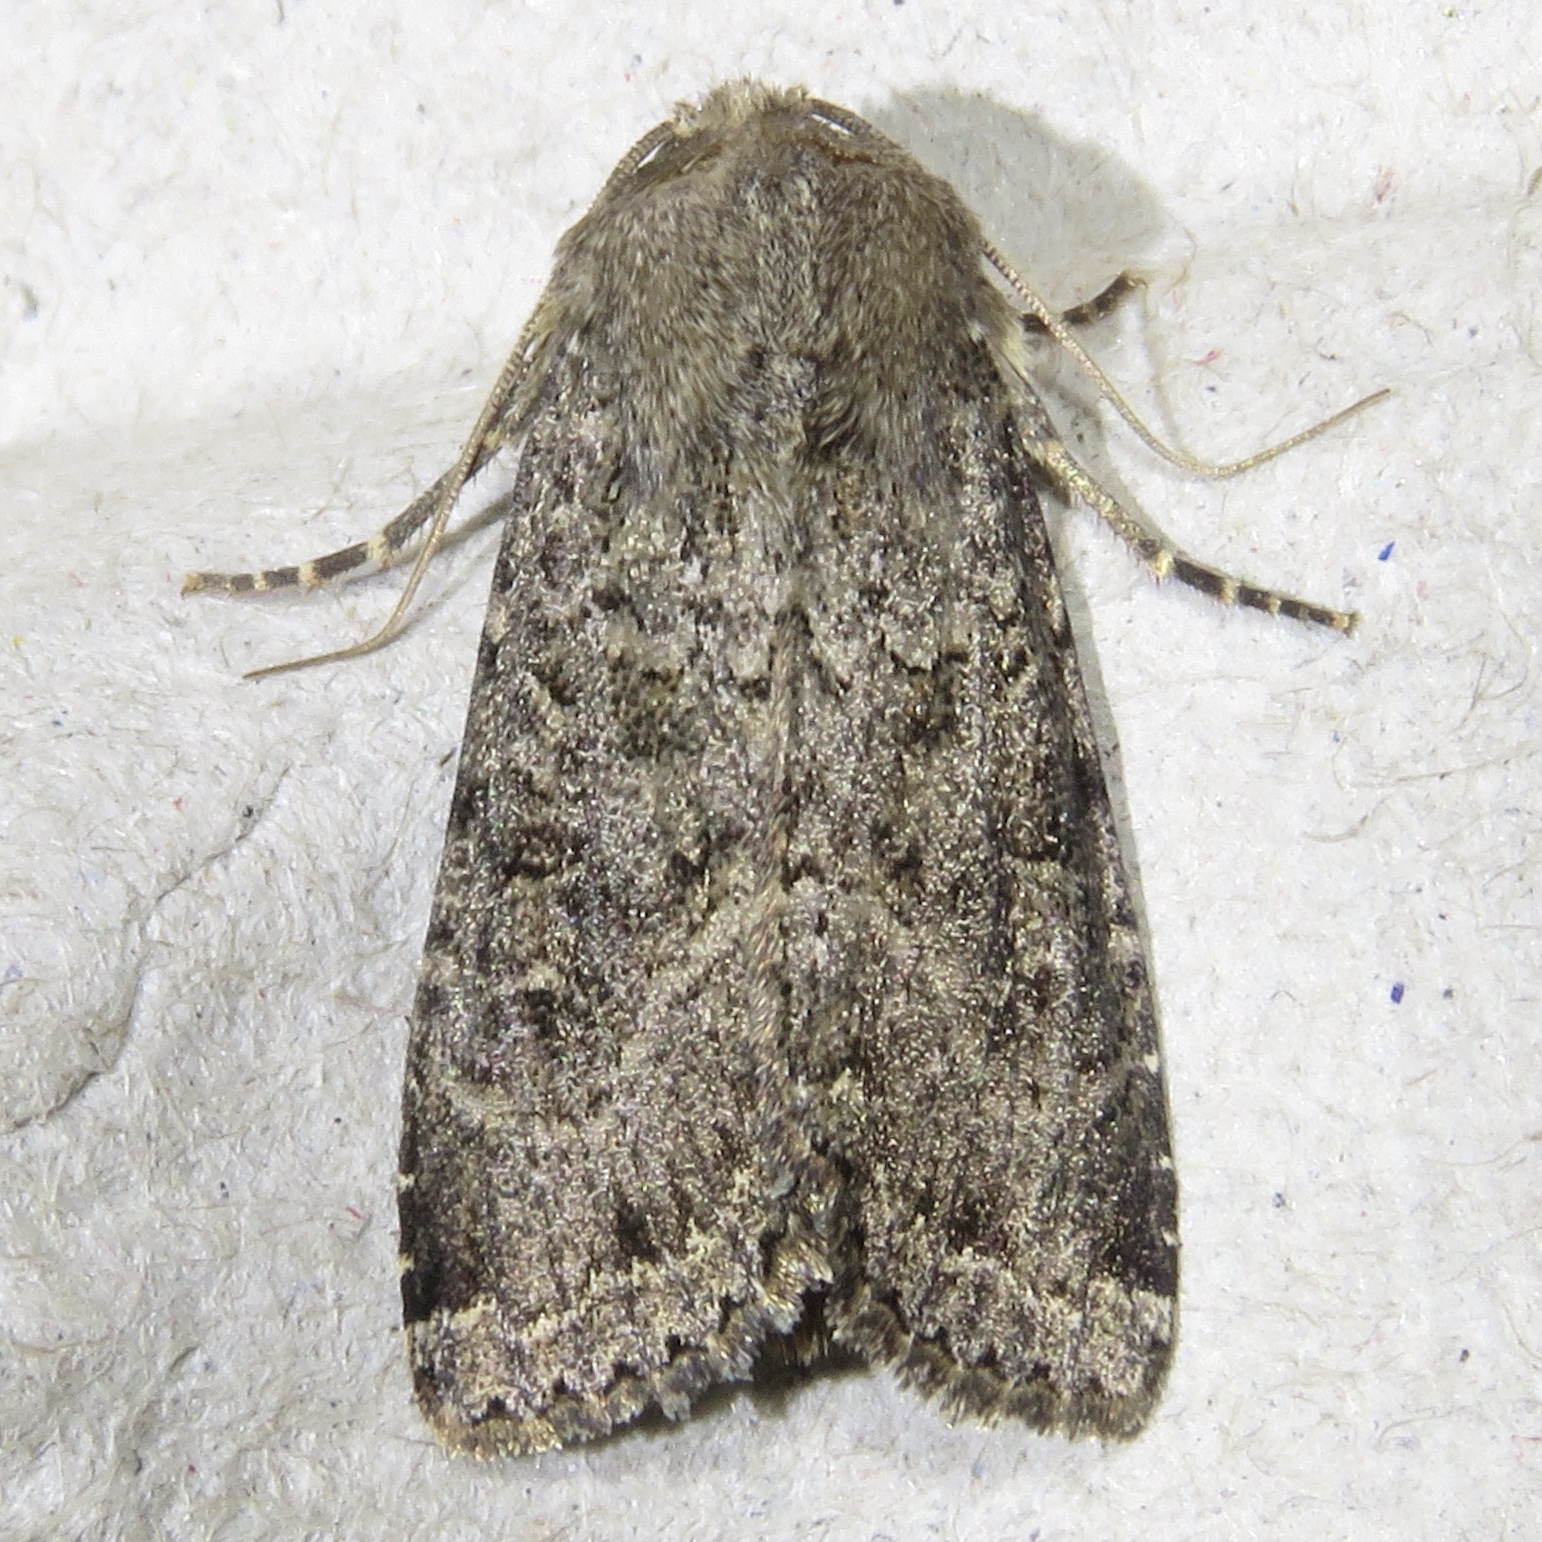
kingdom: Animalia
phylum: Arthropoda
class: Insecta
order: Lepidoptera
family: Noctuidae
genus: Apamea
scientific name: Apamea devastator
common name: Glassy cutworm
